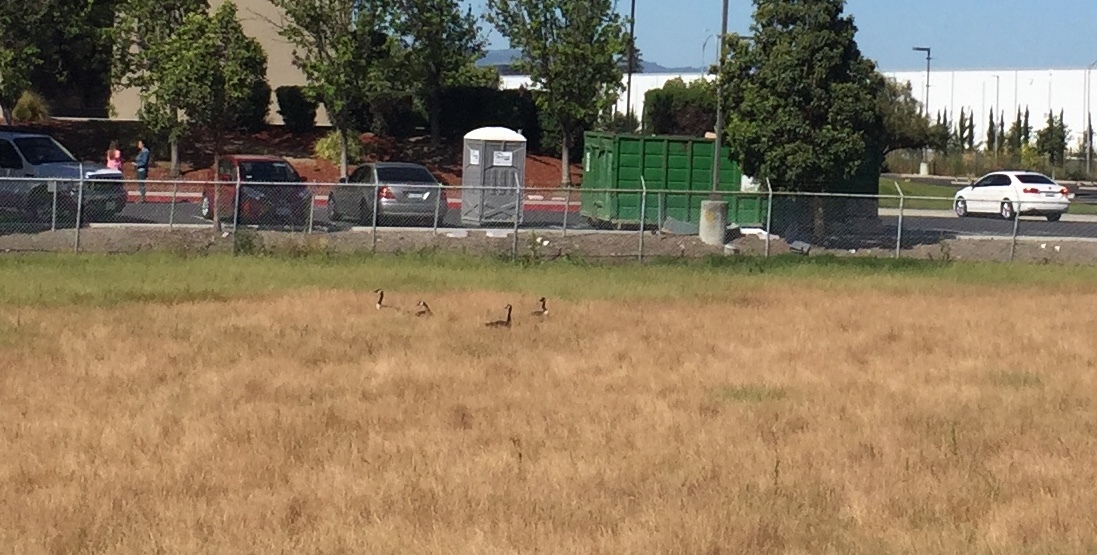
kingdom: Animalia
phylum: Chordata
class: Aves
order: Anseriformes
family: Anatidae
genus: Branta
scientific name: Branta canadensis
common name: Canada goose
